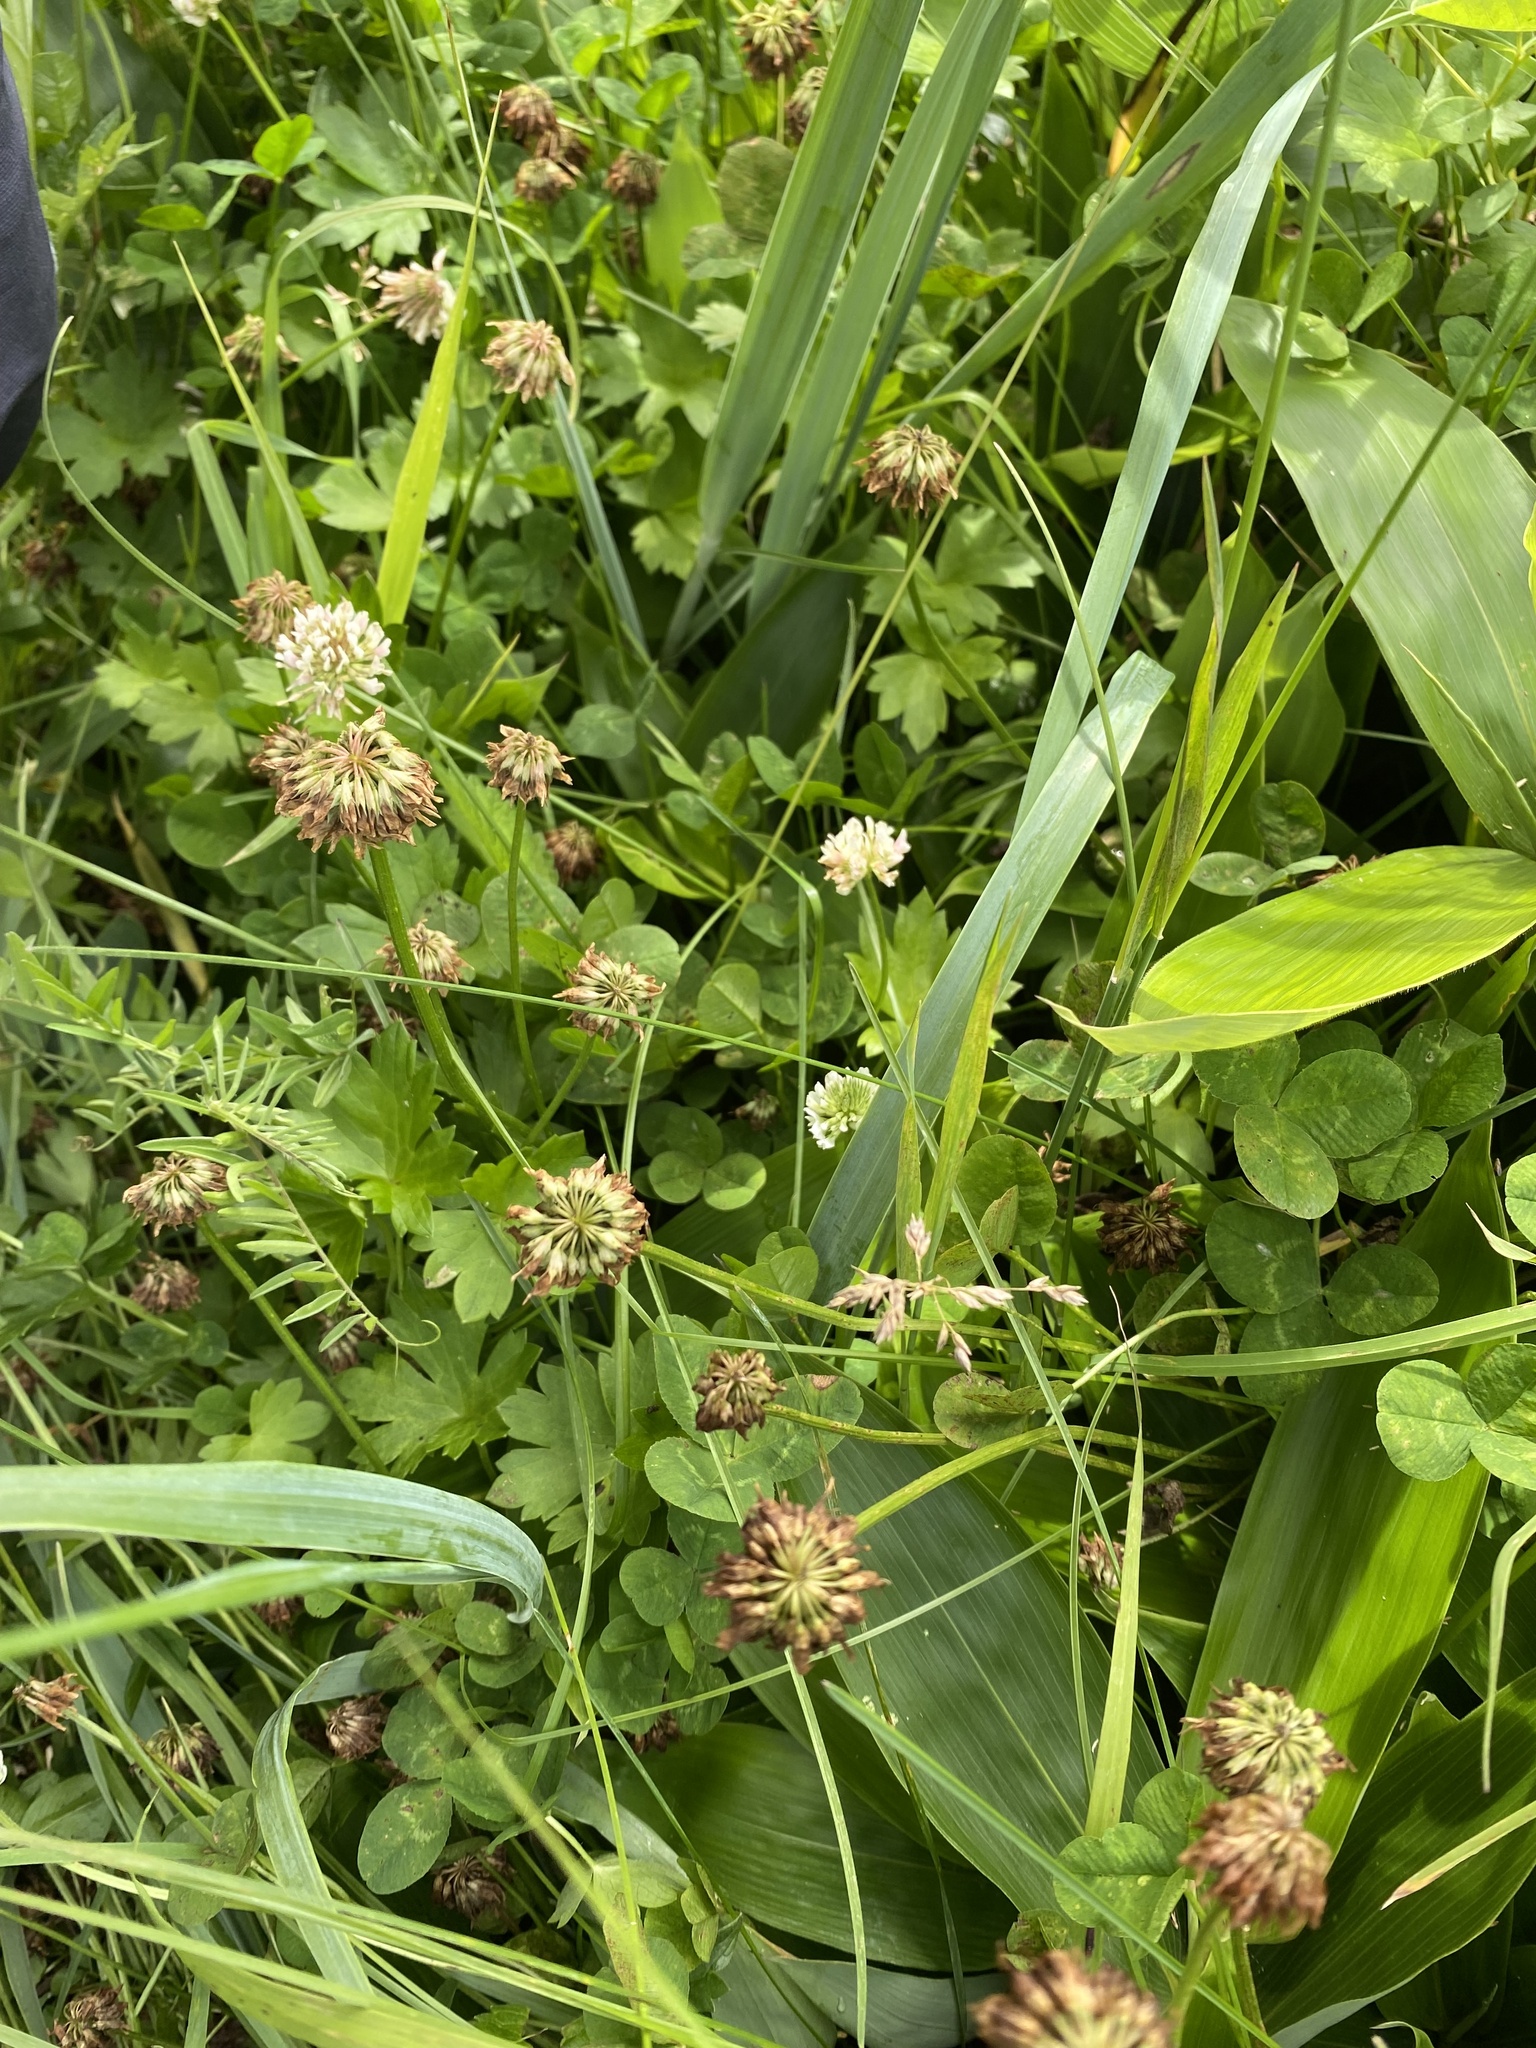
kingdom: Plantae
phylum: Tracheophyta
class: Magnoliopsida
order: Fabales
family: Fabaceae
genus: Trifolium
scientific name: Trifolium repens
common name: White clover
